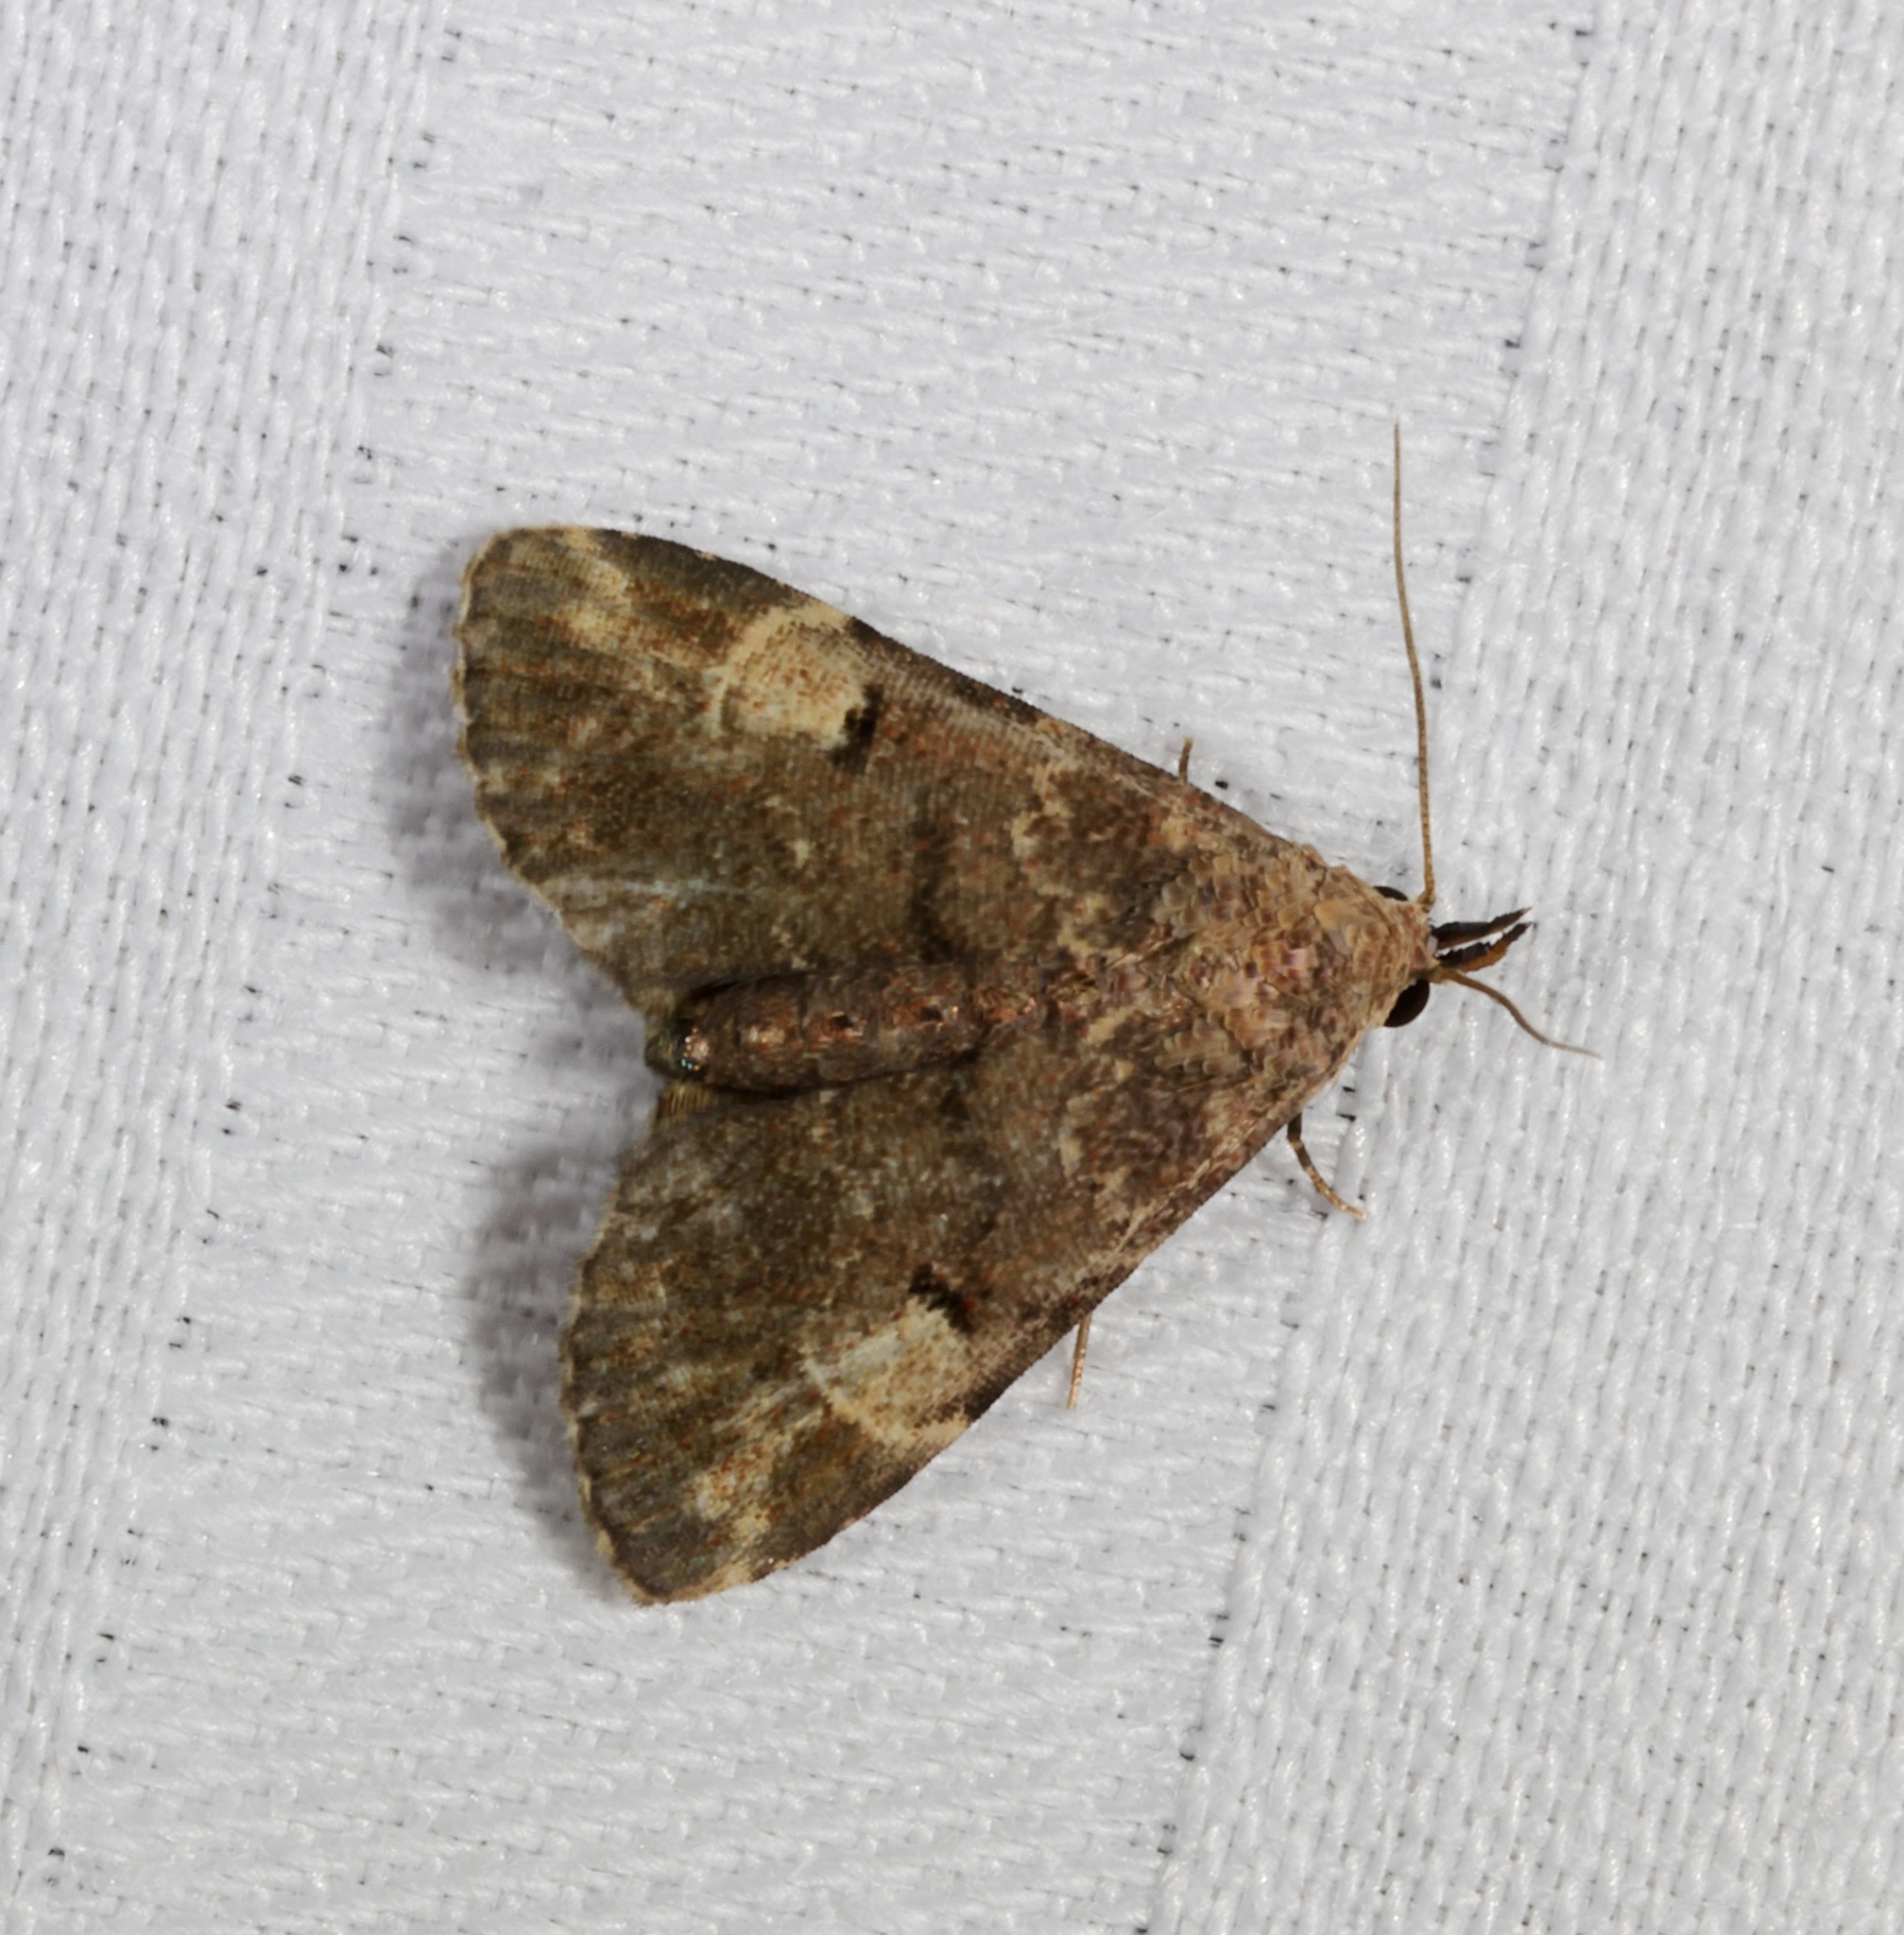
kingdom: Animalia
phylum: Arthropoda
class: Insecta
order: Lepidoptera
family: Erebidae
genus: Maguda
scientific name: Maguda suffusa
